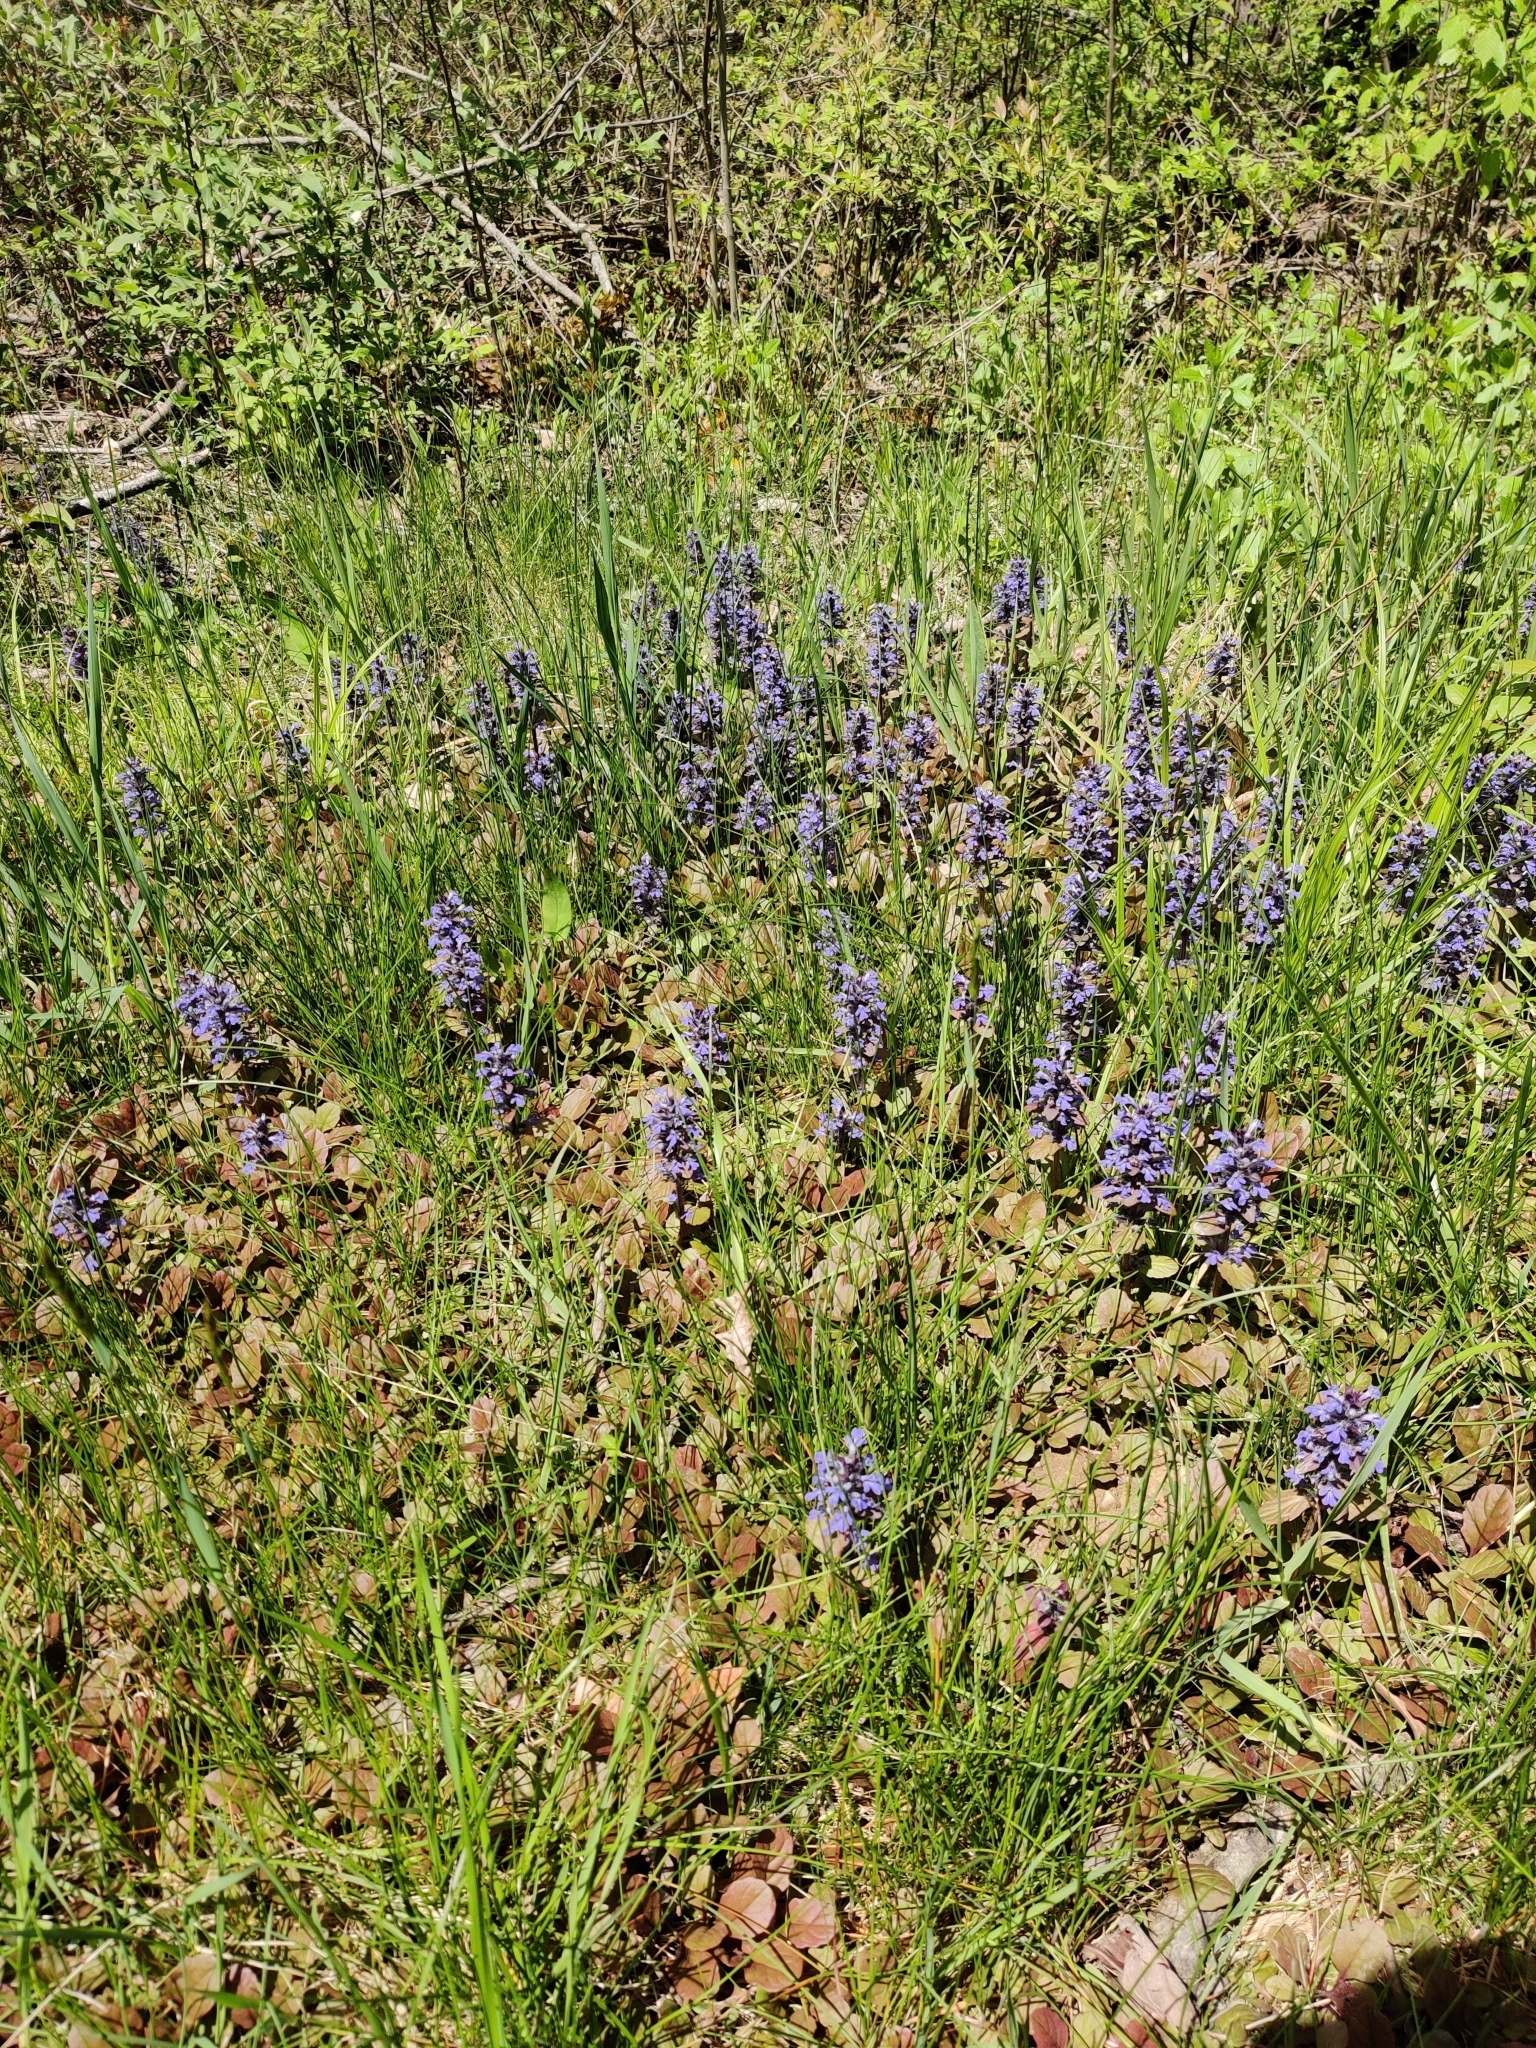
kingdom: Plantae
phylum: Tracheophyta
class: Magnoliopsida
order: Lamiales
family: Lamiaceae
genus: Ajuga
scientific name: Ajuga reptans
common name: Bugle
